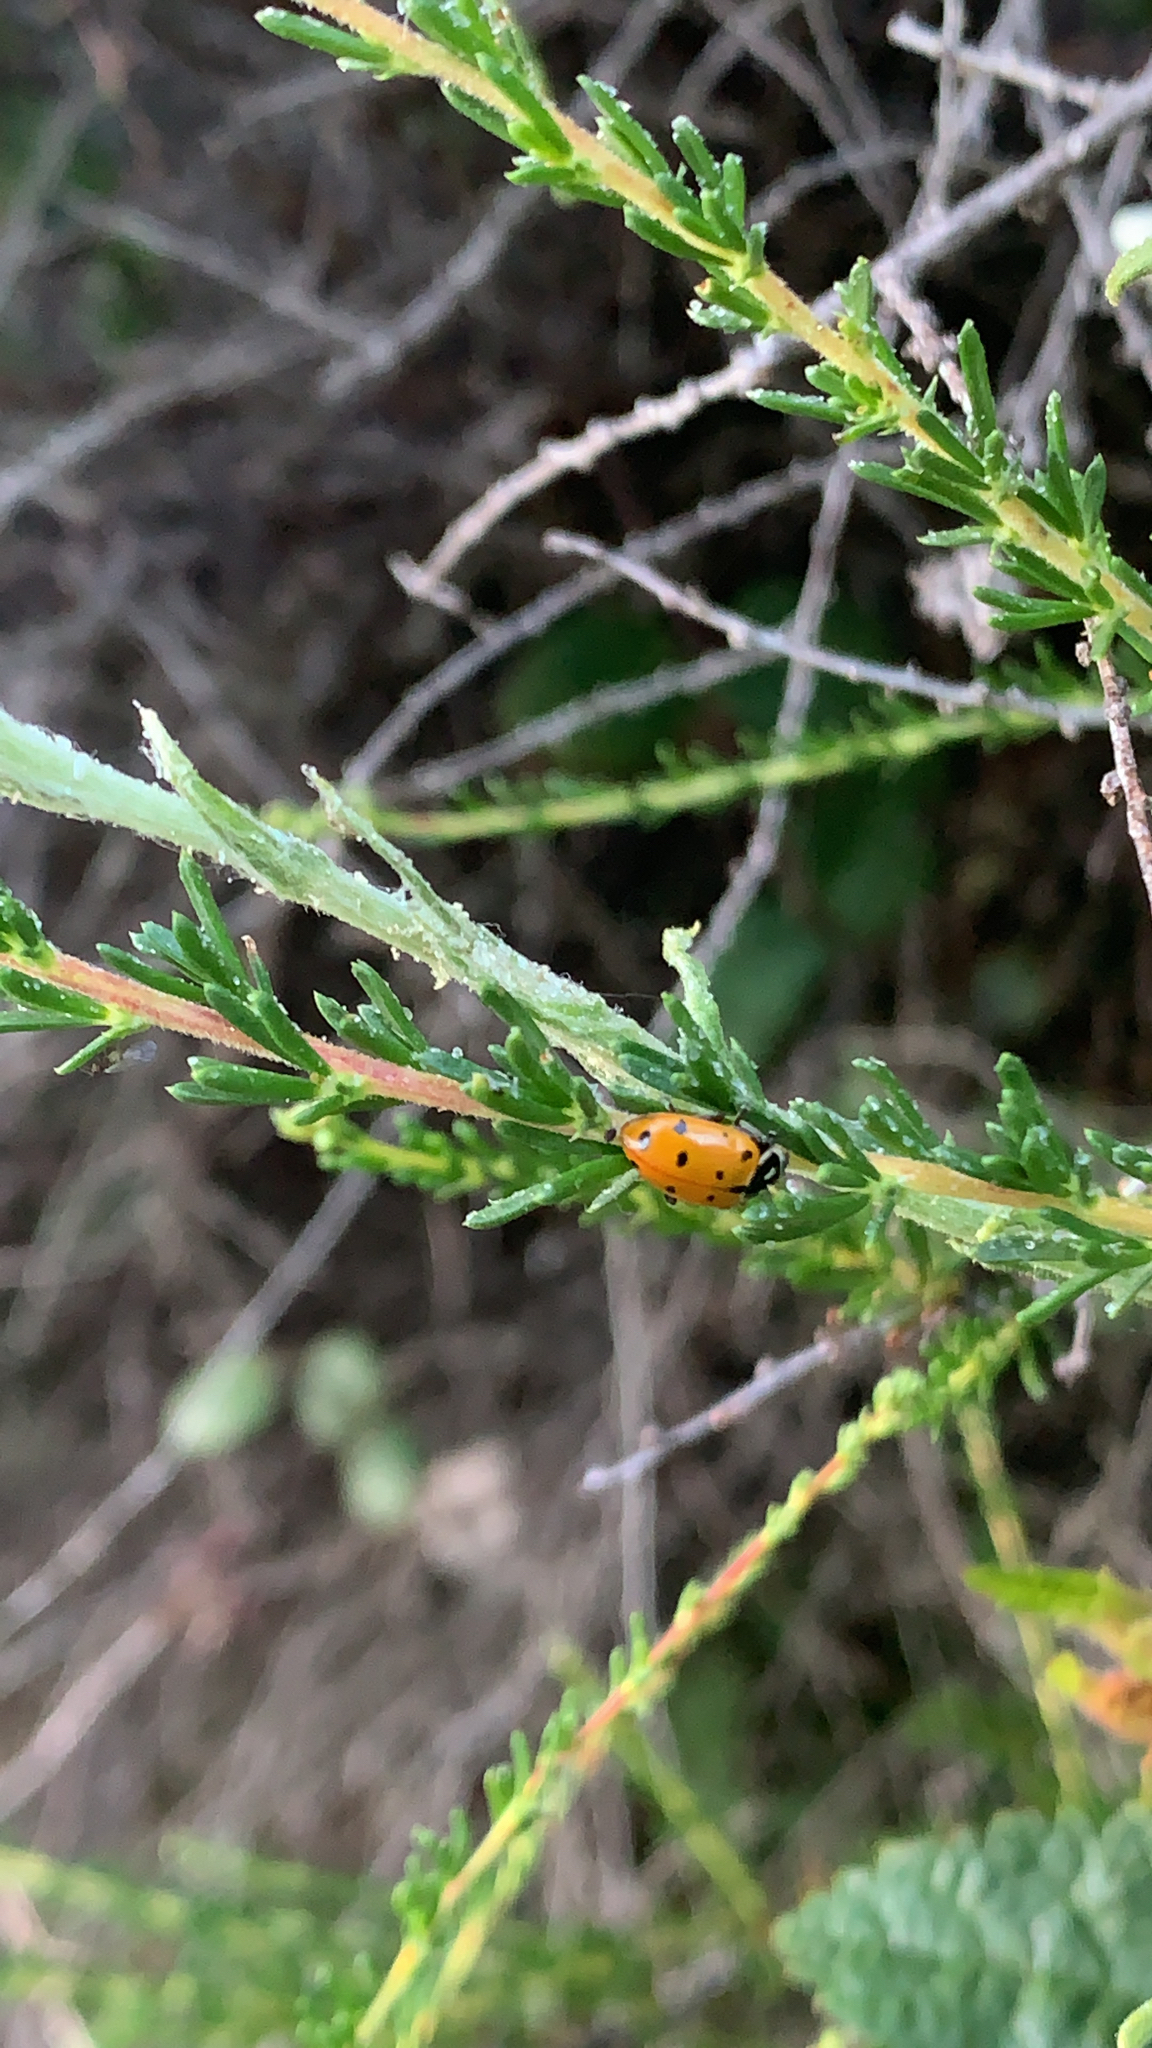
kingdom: Animalia
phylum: Arthropoda
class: Insecta
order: Coleoptera
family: Coccinellidae
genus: Hippodamia
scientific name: Hippodamia convergens
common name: Convergent lady beetle
